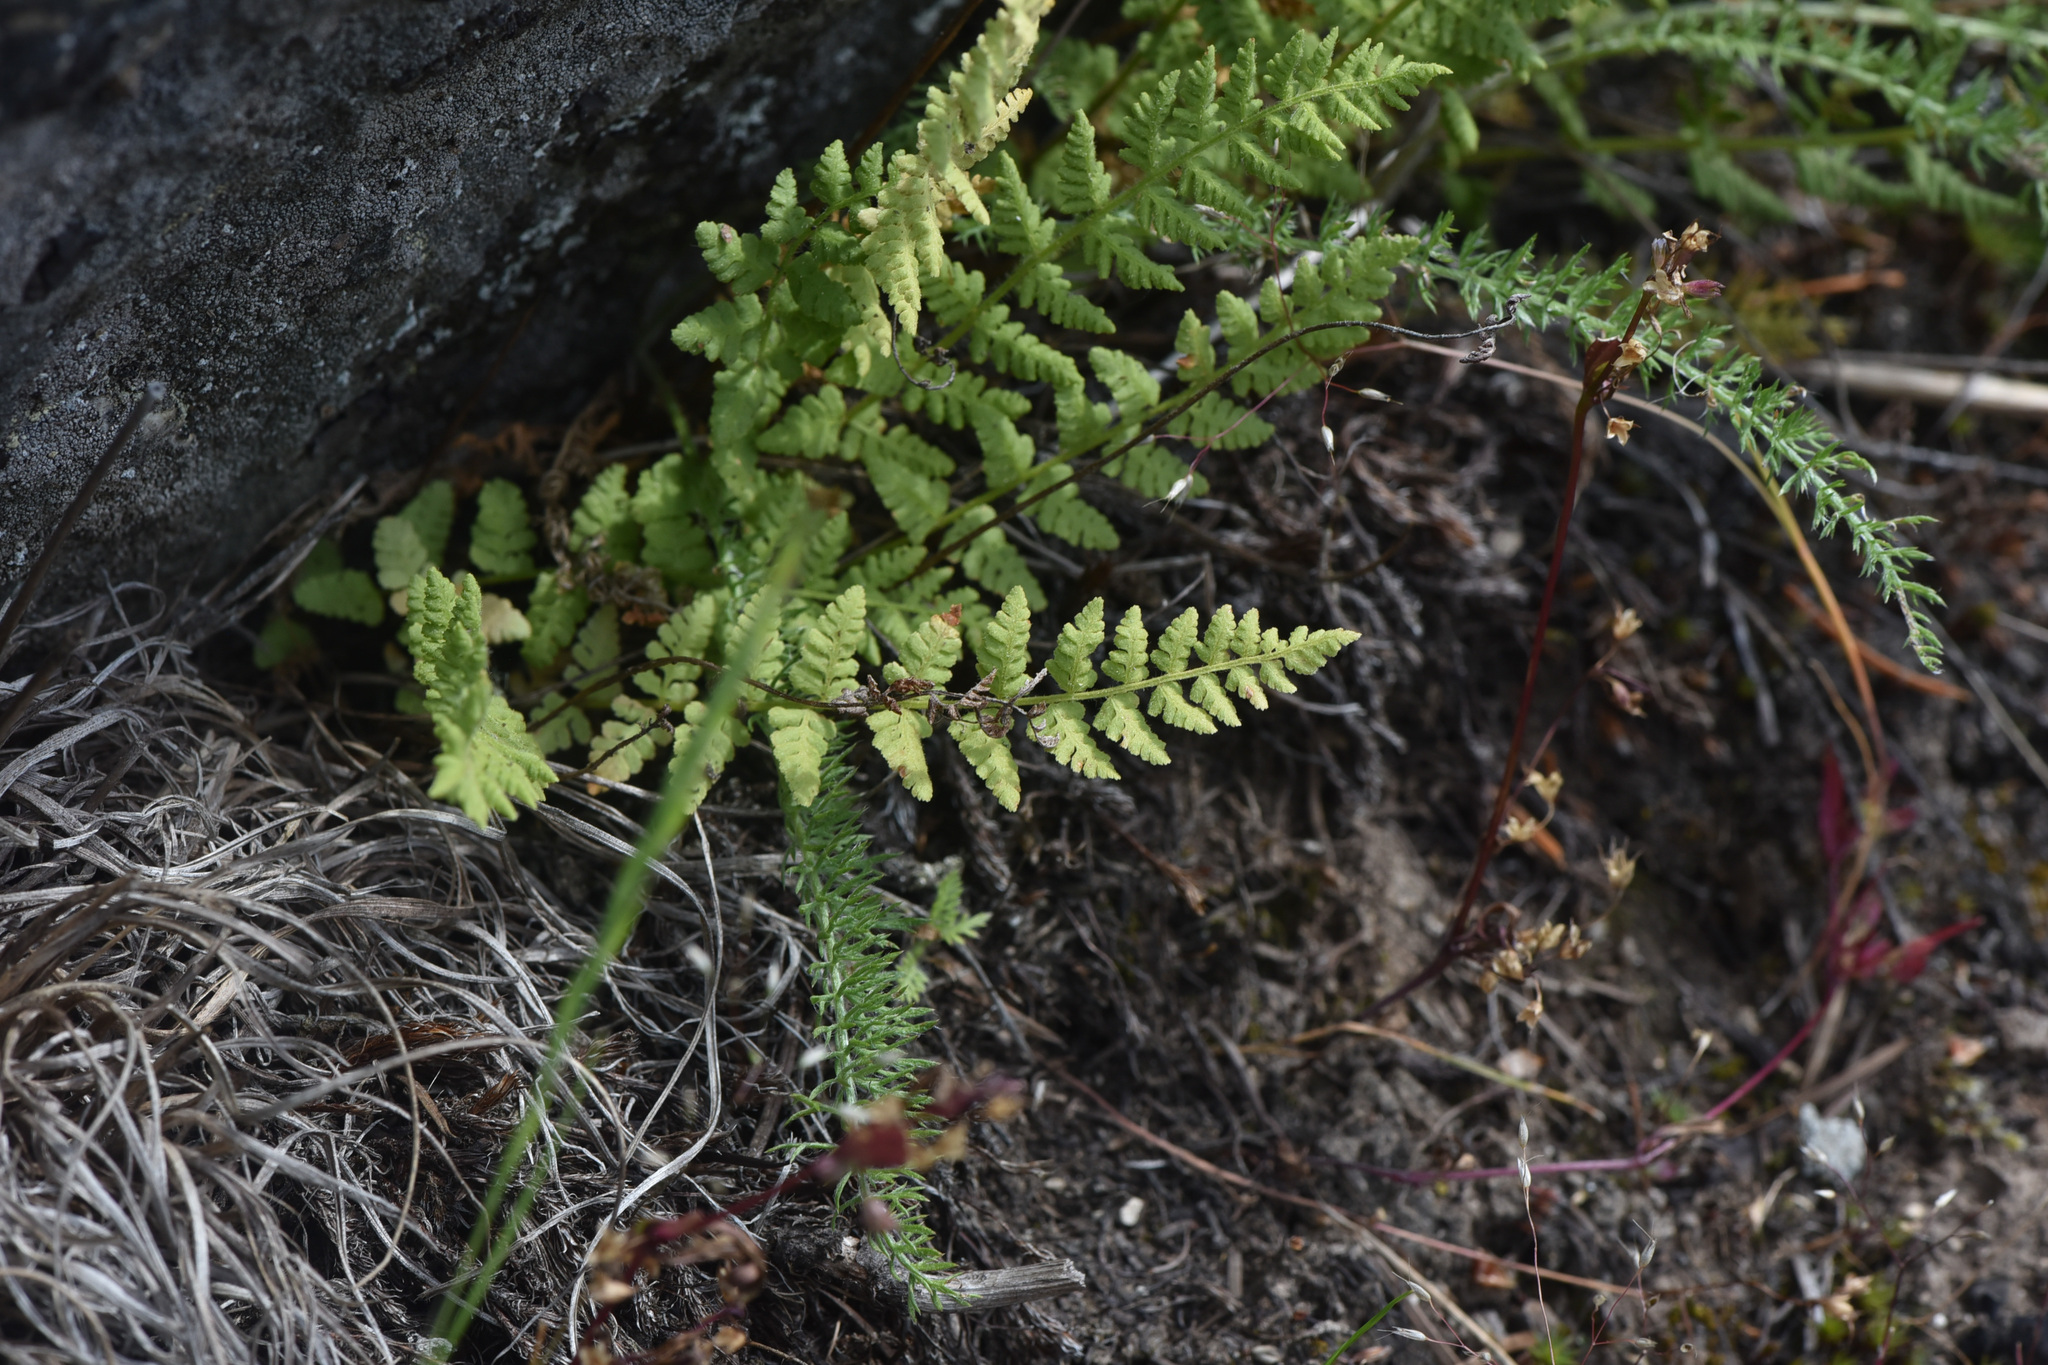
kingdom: Plantae
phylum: Tracheophyta
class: Polypodiopsida
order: Polypodiales
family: Woodsiaceae
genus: Physematium
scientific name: Physematium scopulinum
